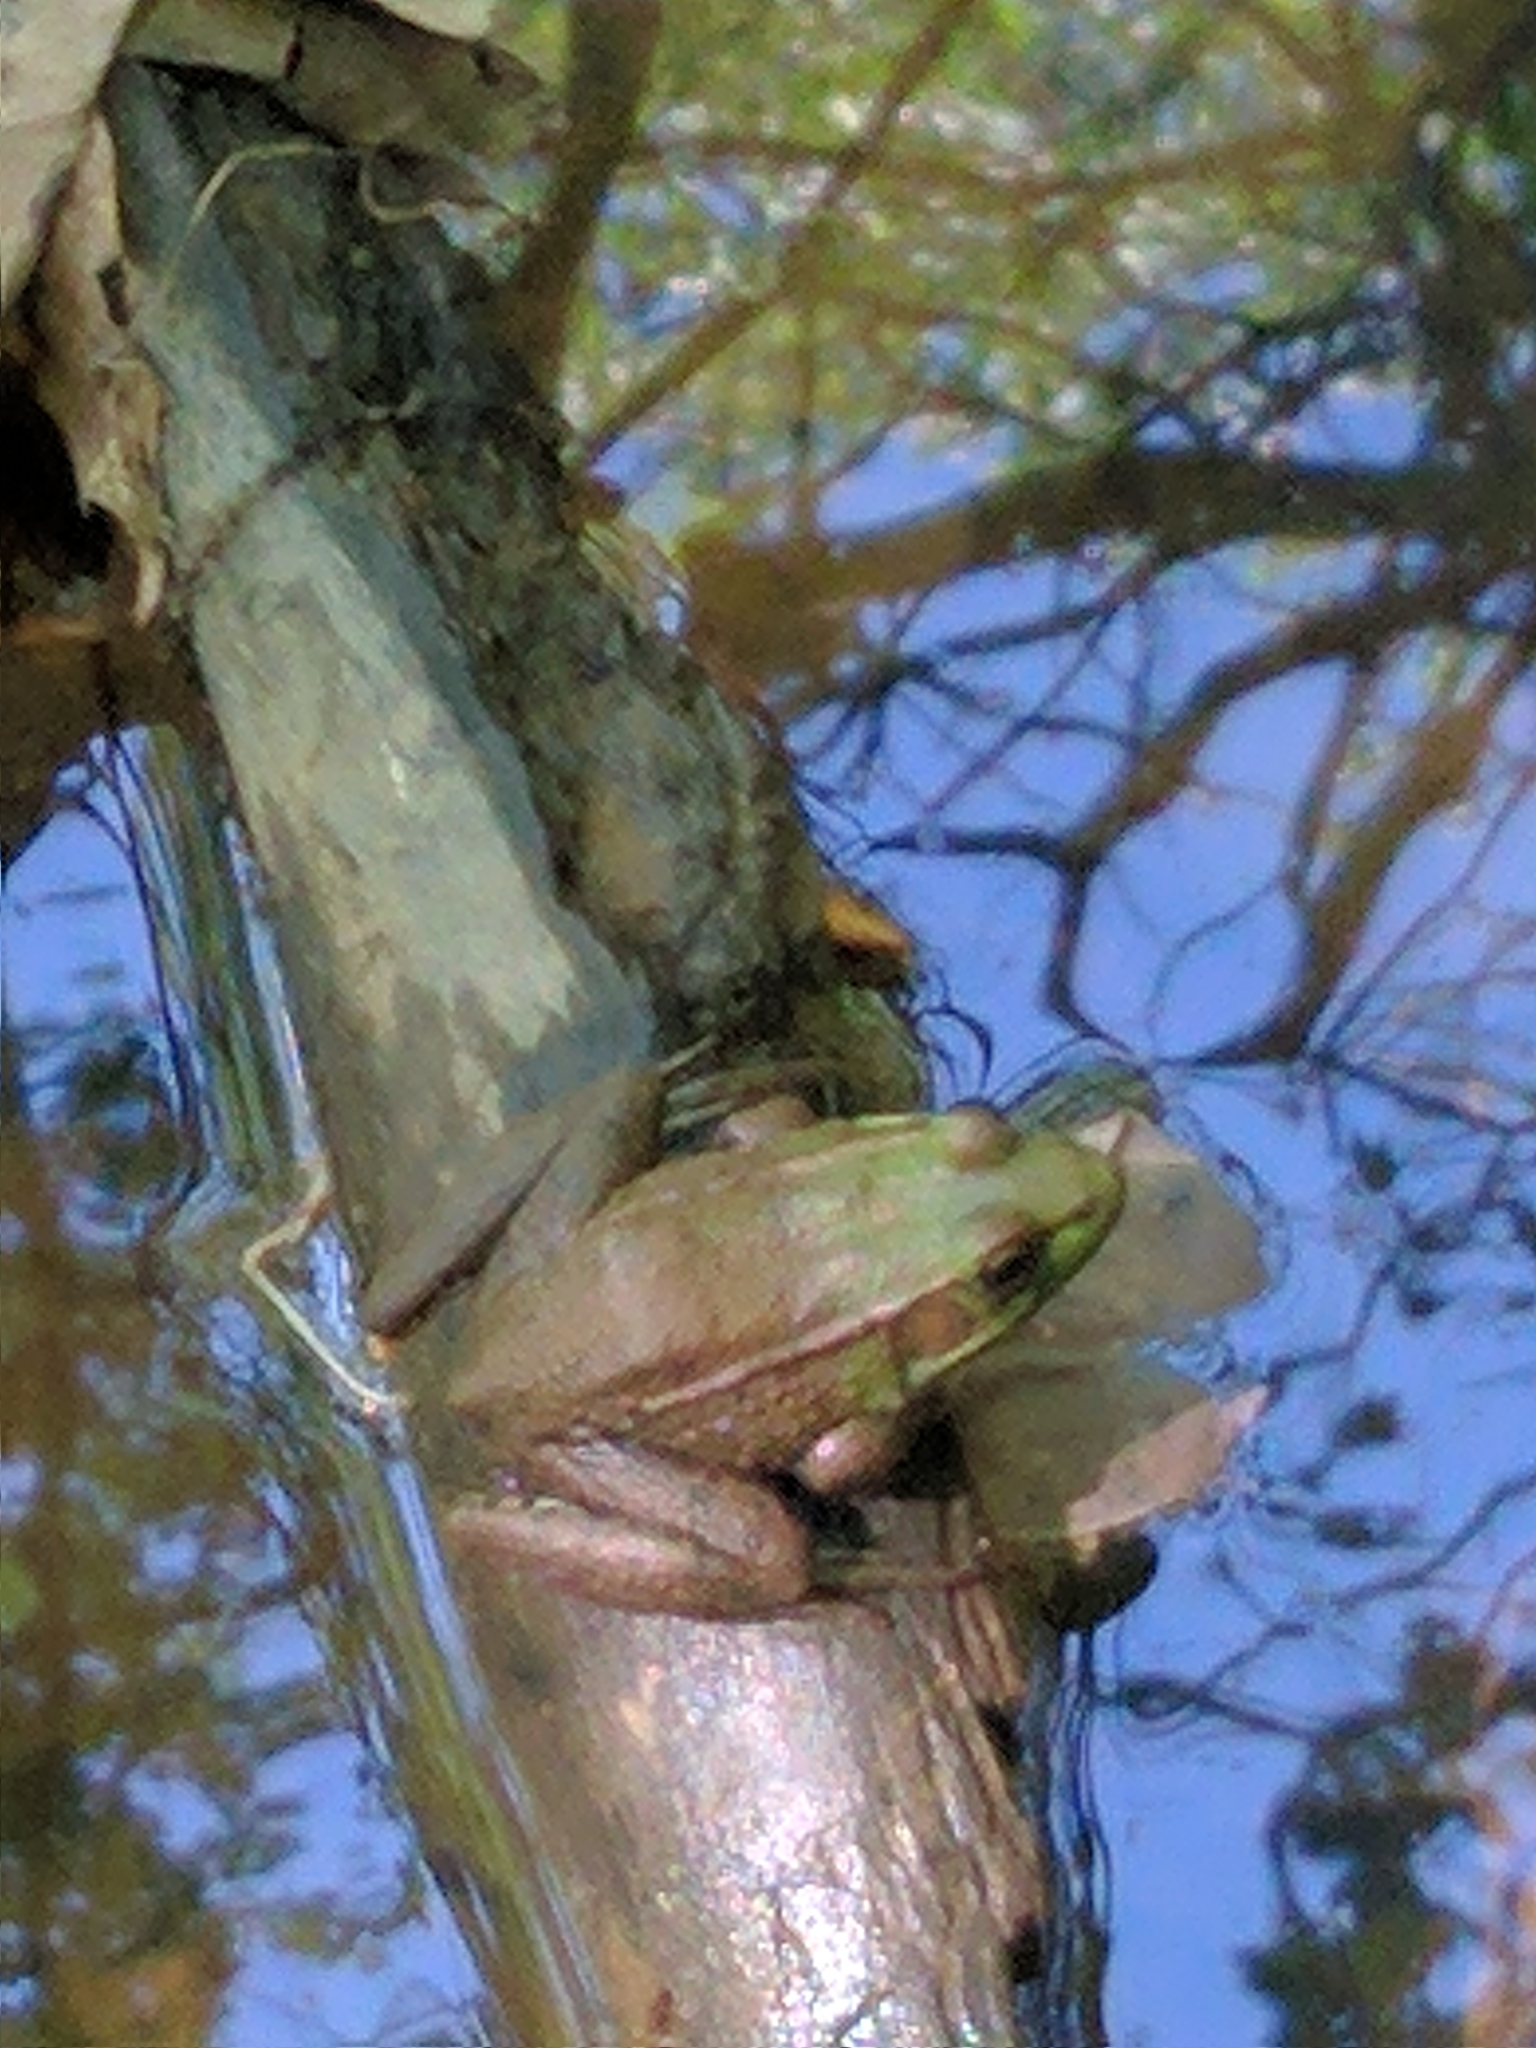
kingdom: Animalia
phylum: Chordata
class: Amphibia
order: Anura
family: Ranidae
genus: Lithobates
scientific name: Lithobates clamitans
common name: Green frog
